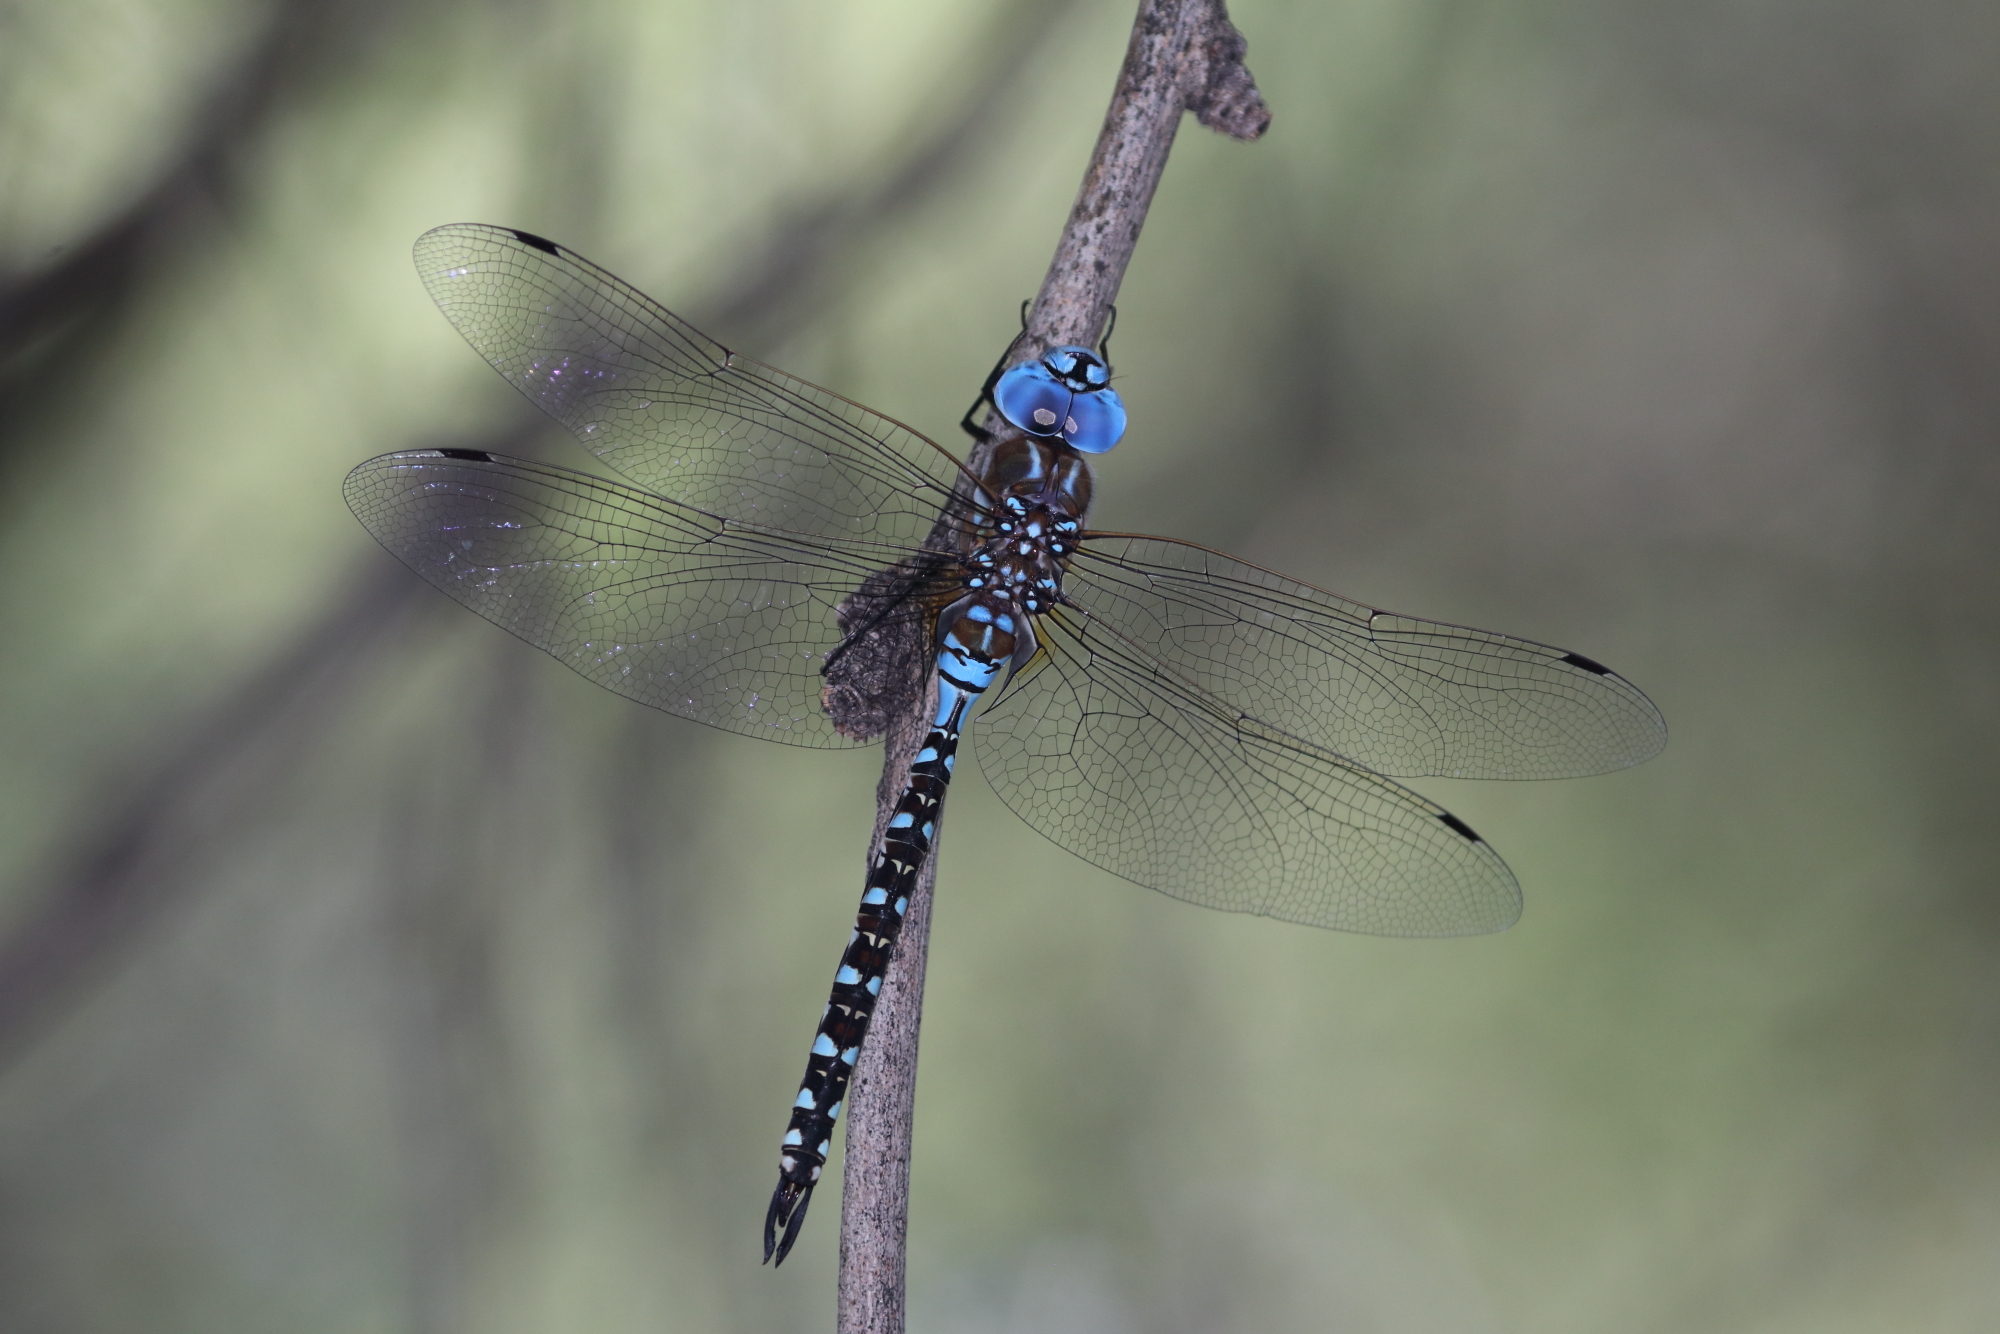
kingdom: Animalia
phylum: Arthropoda
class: Insecta
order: Odonata
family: Aeshnidae
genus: Rhionaeschna
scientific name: Rhionaeschna multicolor
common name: Blue-eyed darner
